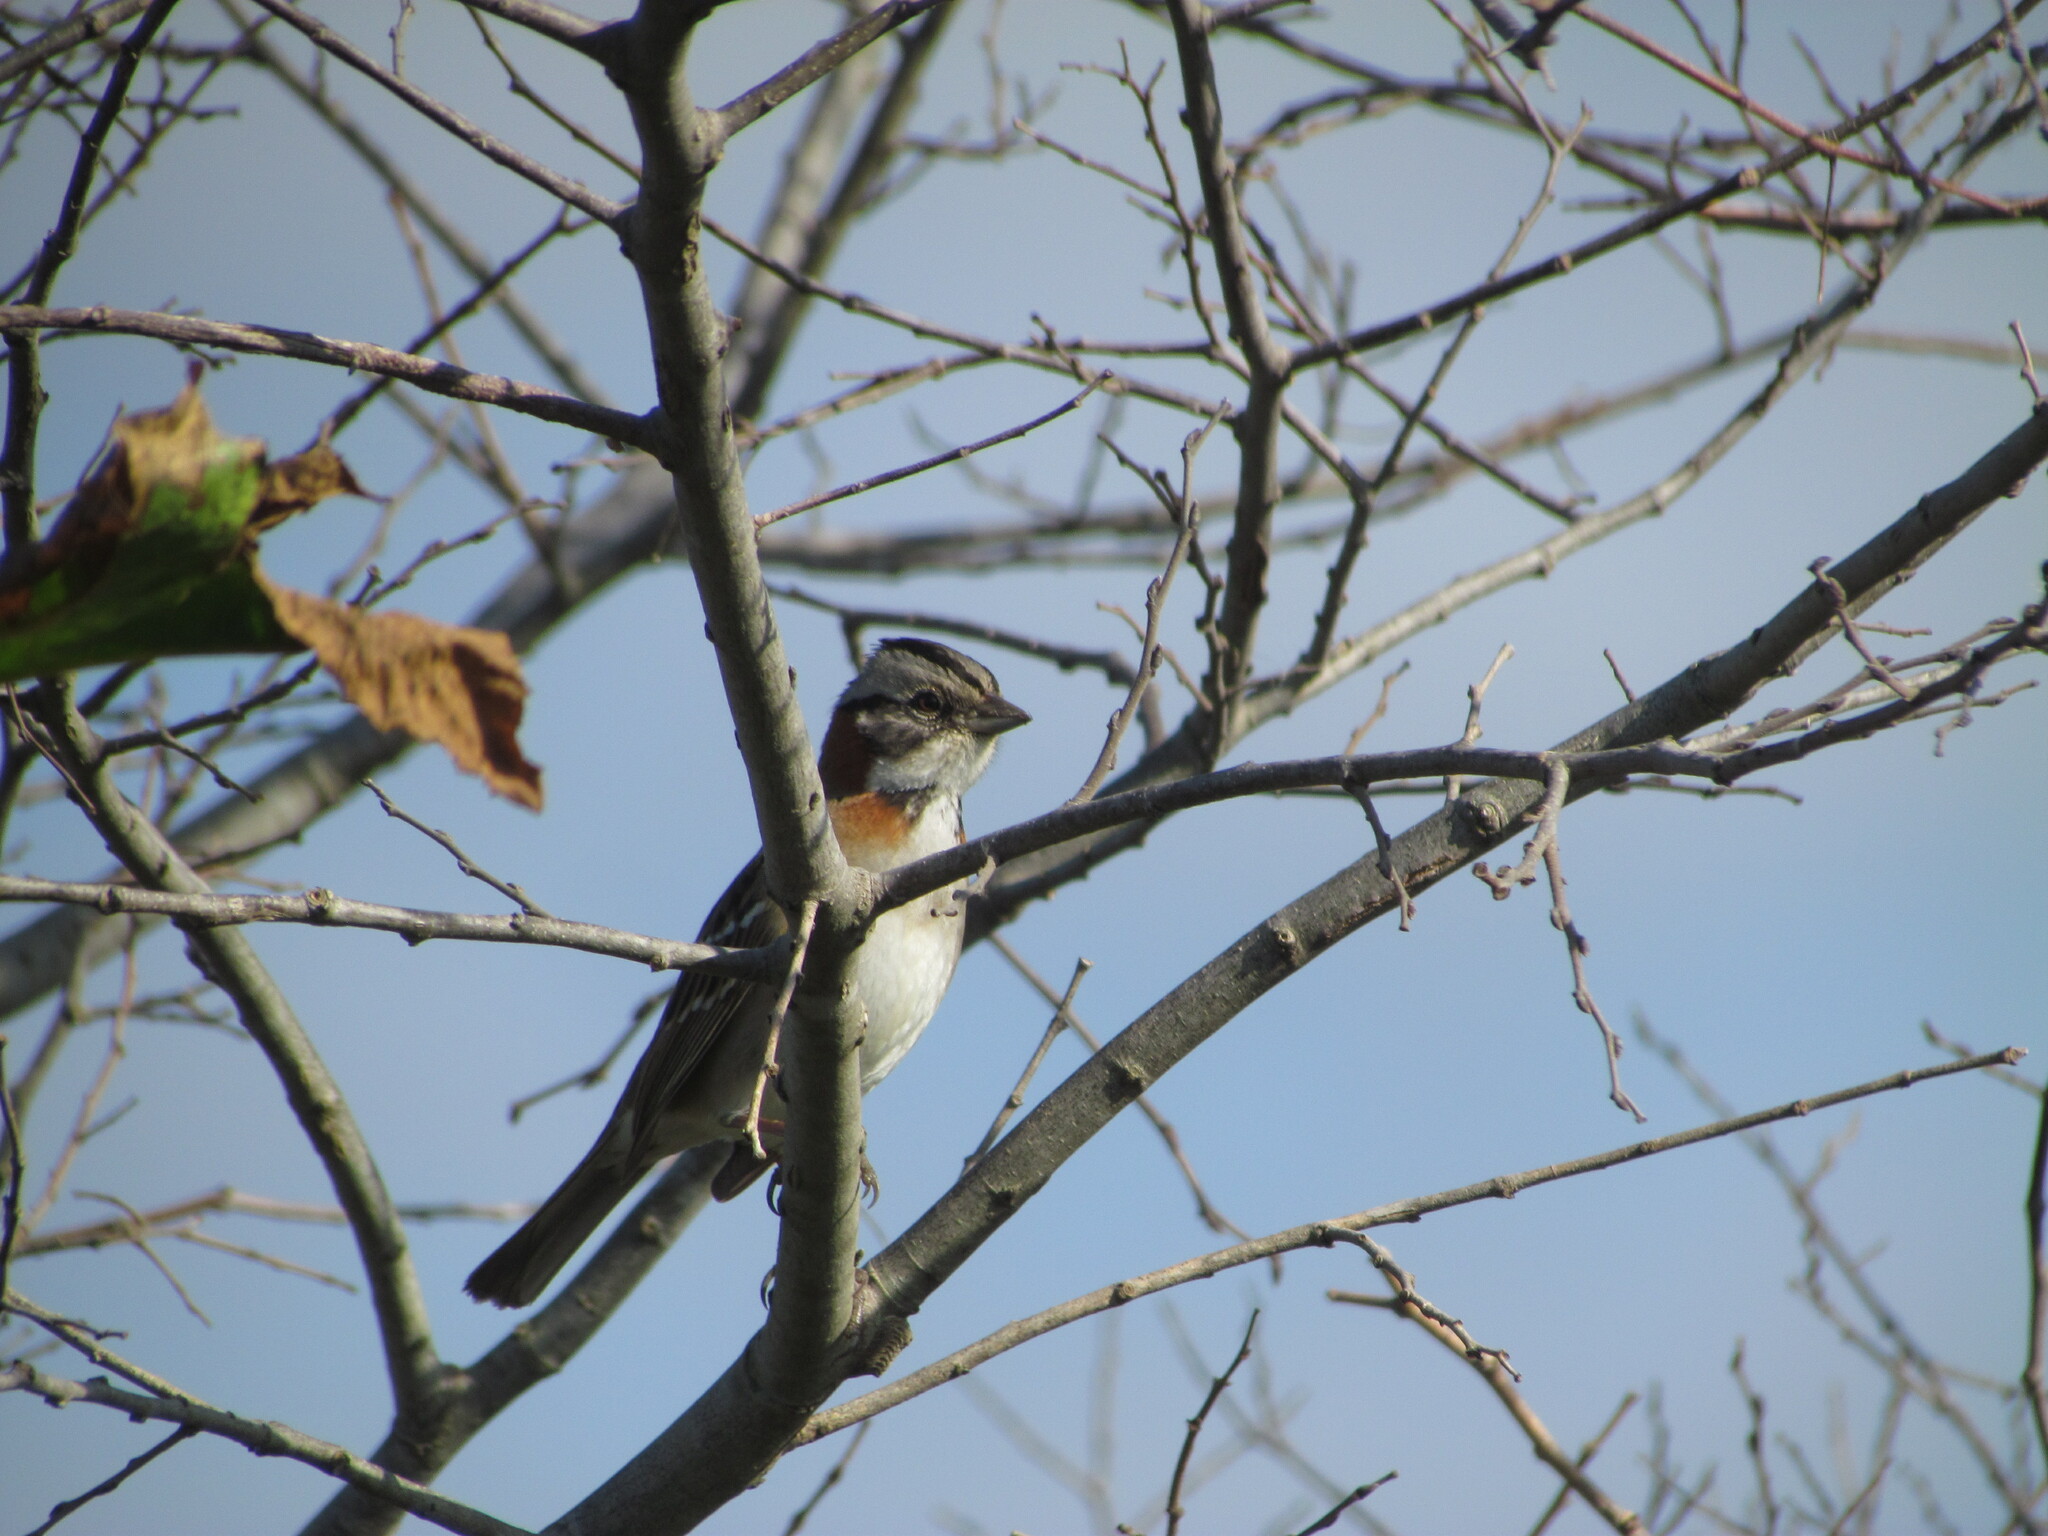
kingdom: Animalia
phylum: Chordata
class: Aves
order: Passeriformes
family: Passerellidae
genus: Zonotrichia
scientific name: Zonotrichia capensis
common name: Rufous-collared sparrow
